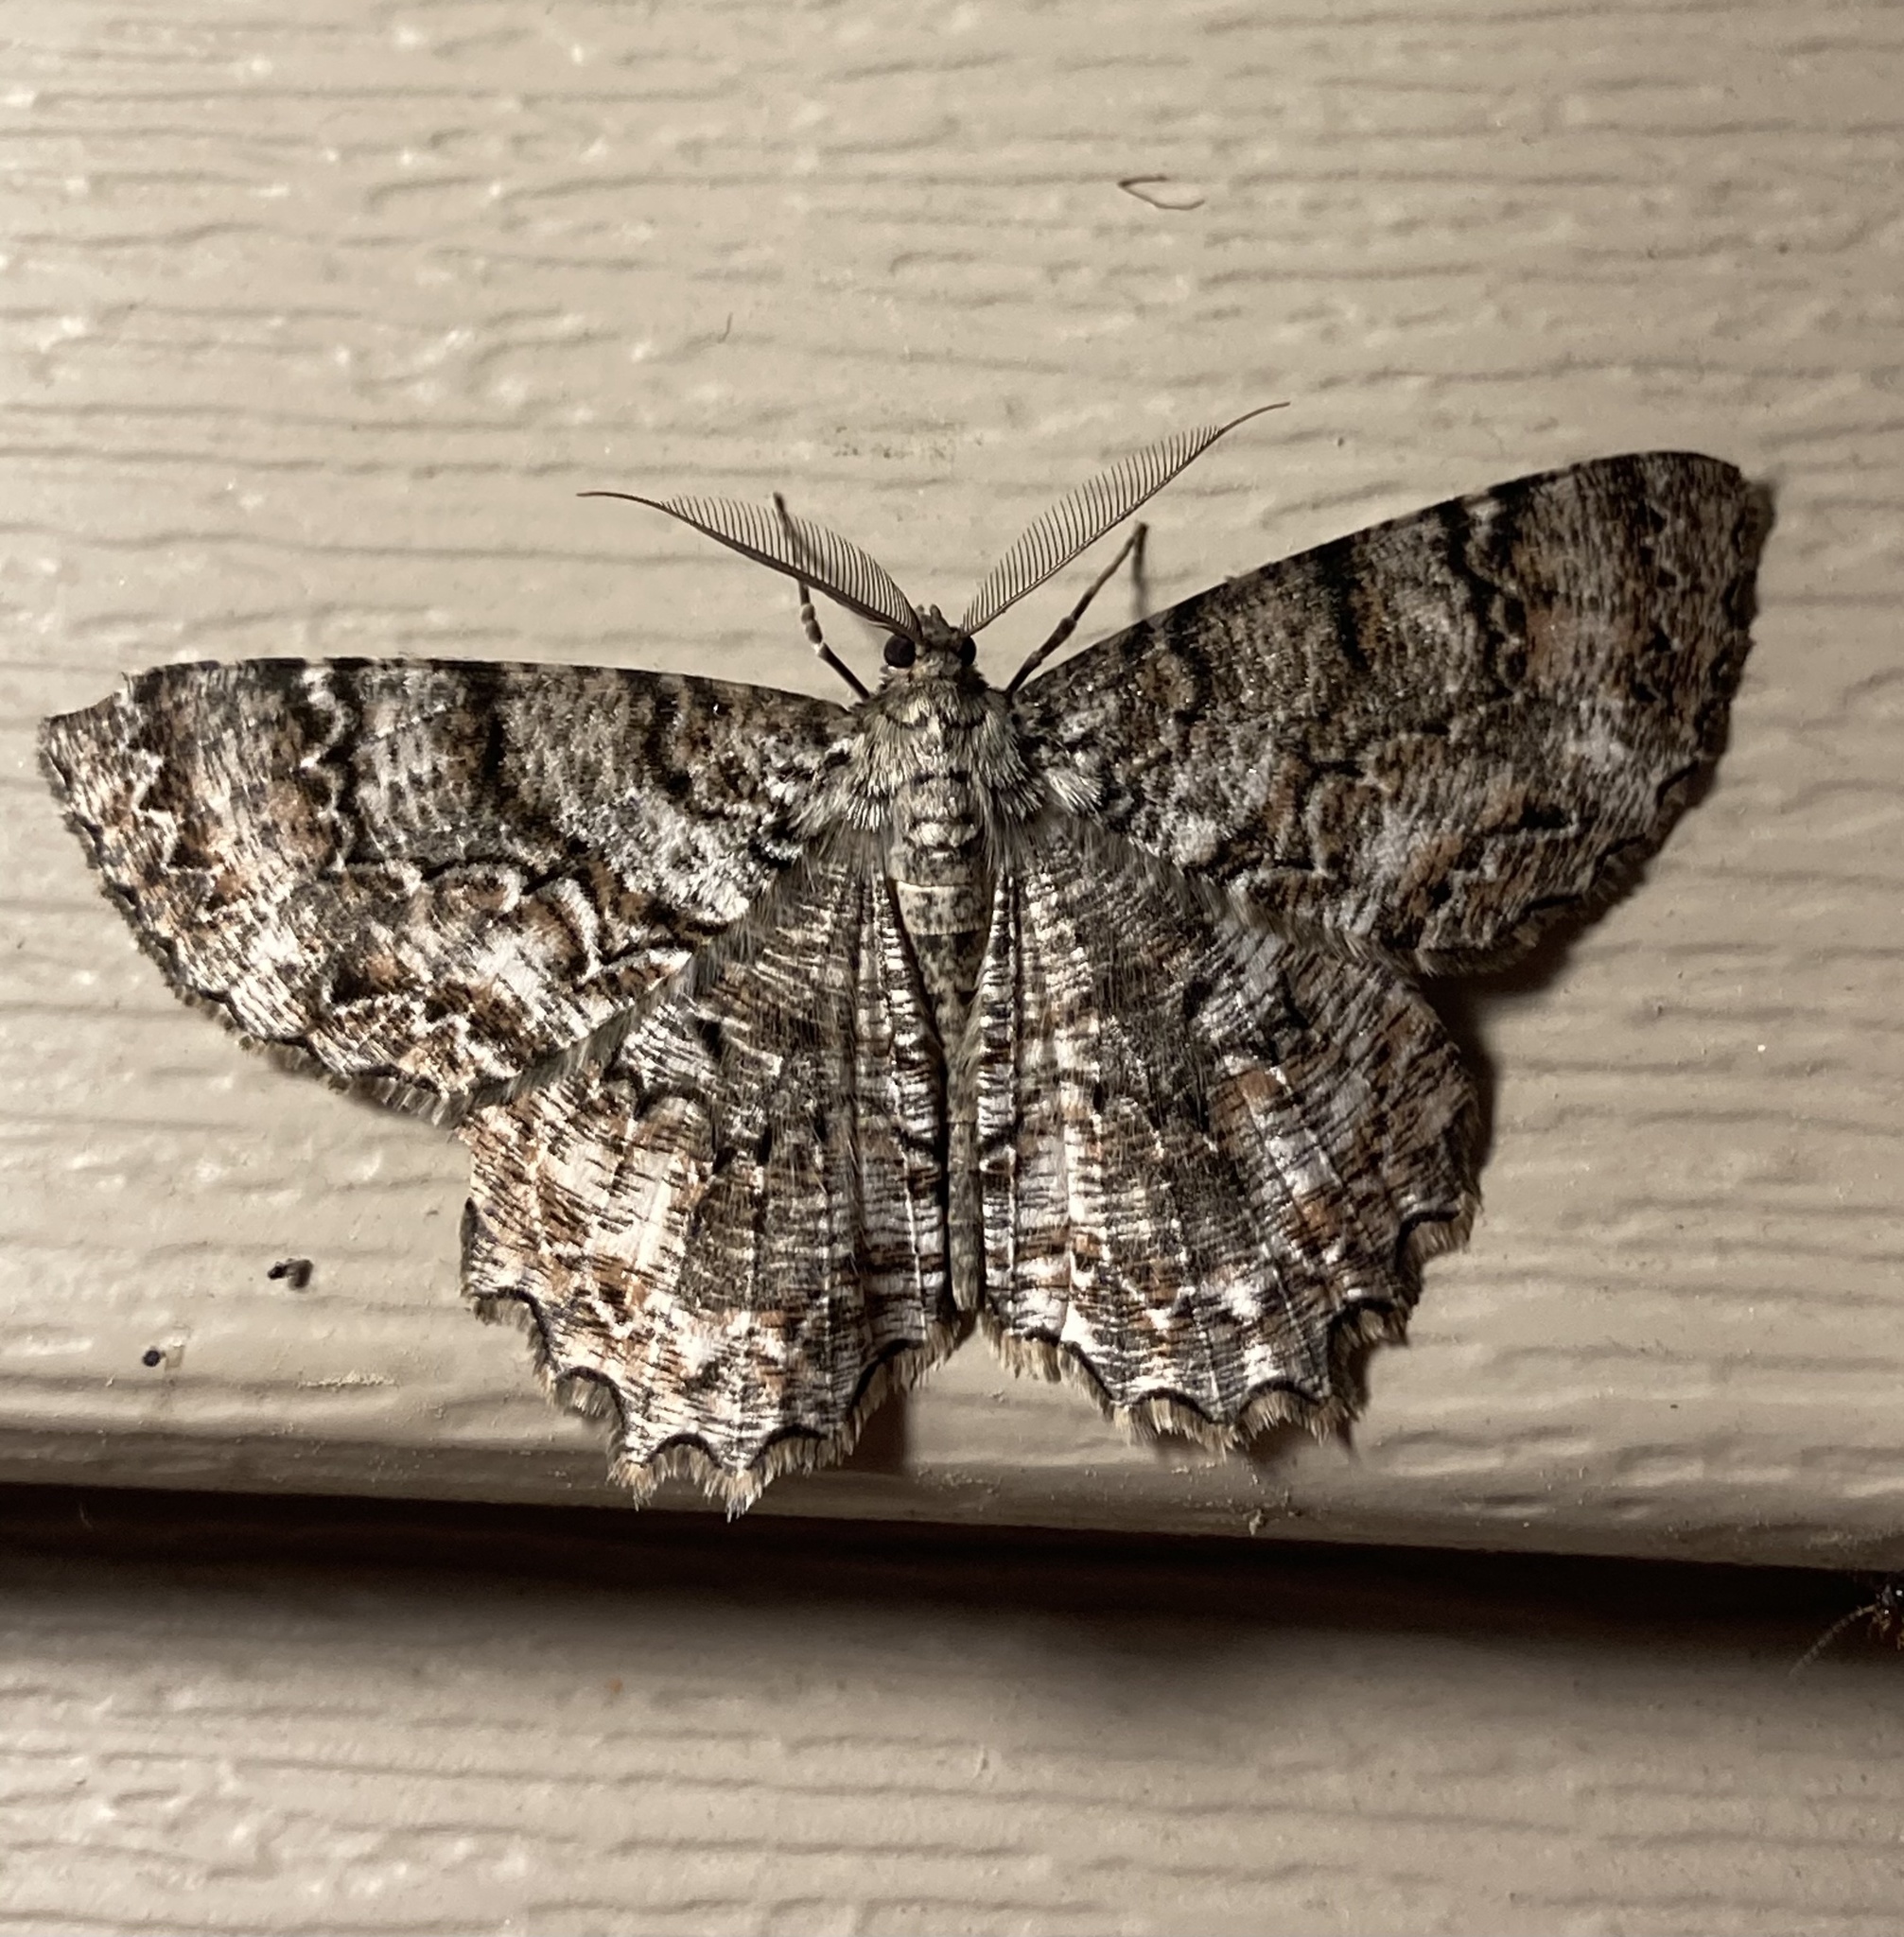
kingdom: Animalia
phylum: Arthropoda
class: Insecta
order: Lepidoptera
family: Geometridae
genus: Epimecis
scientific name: Epimecis hortaria
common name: Tulip-tree beauty
